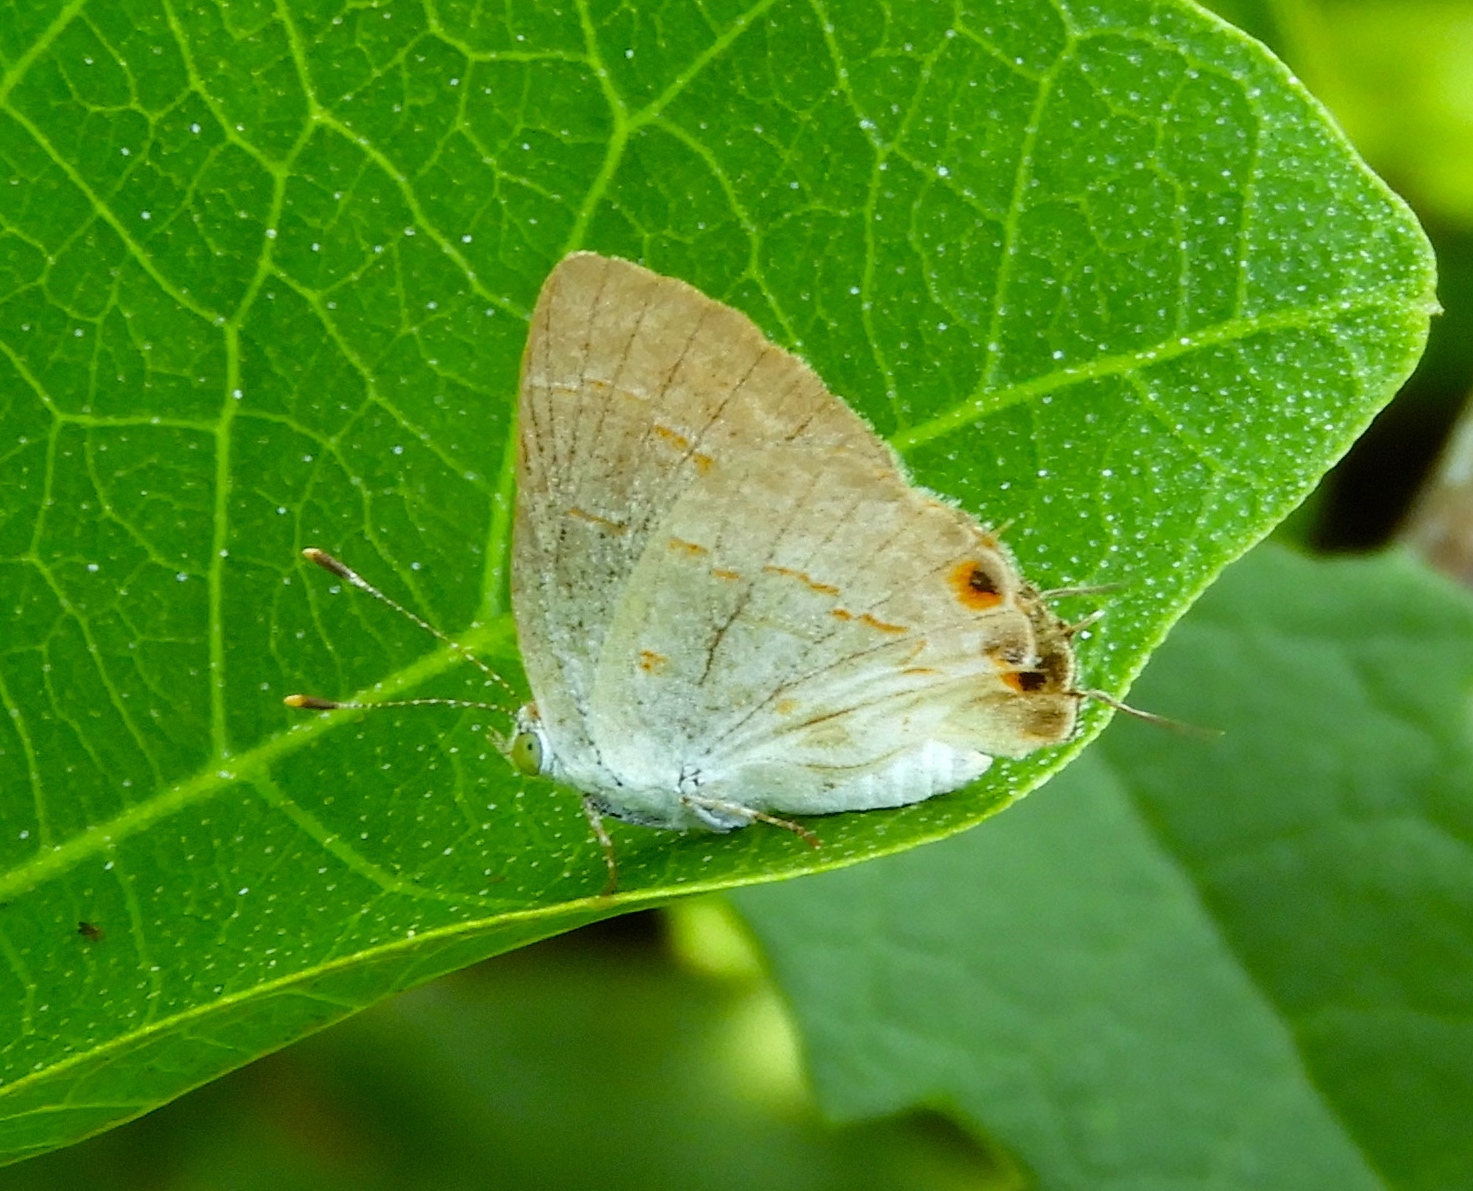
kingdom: Animalia
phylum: Arthropoda
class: Insecta
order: Lepidoptera
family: Lycaenidae
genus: Ministrymon
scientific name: Ministrymon
